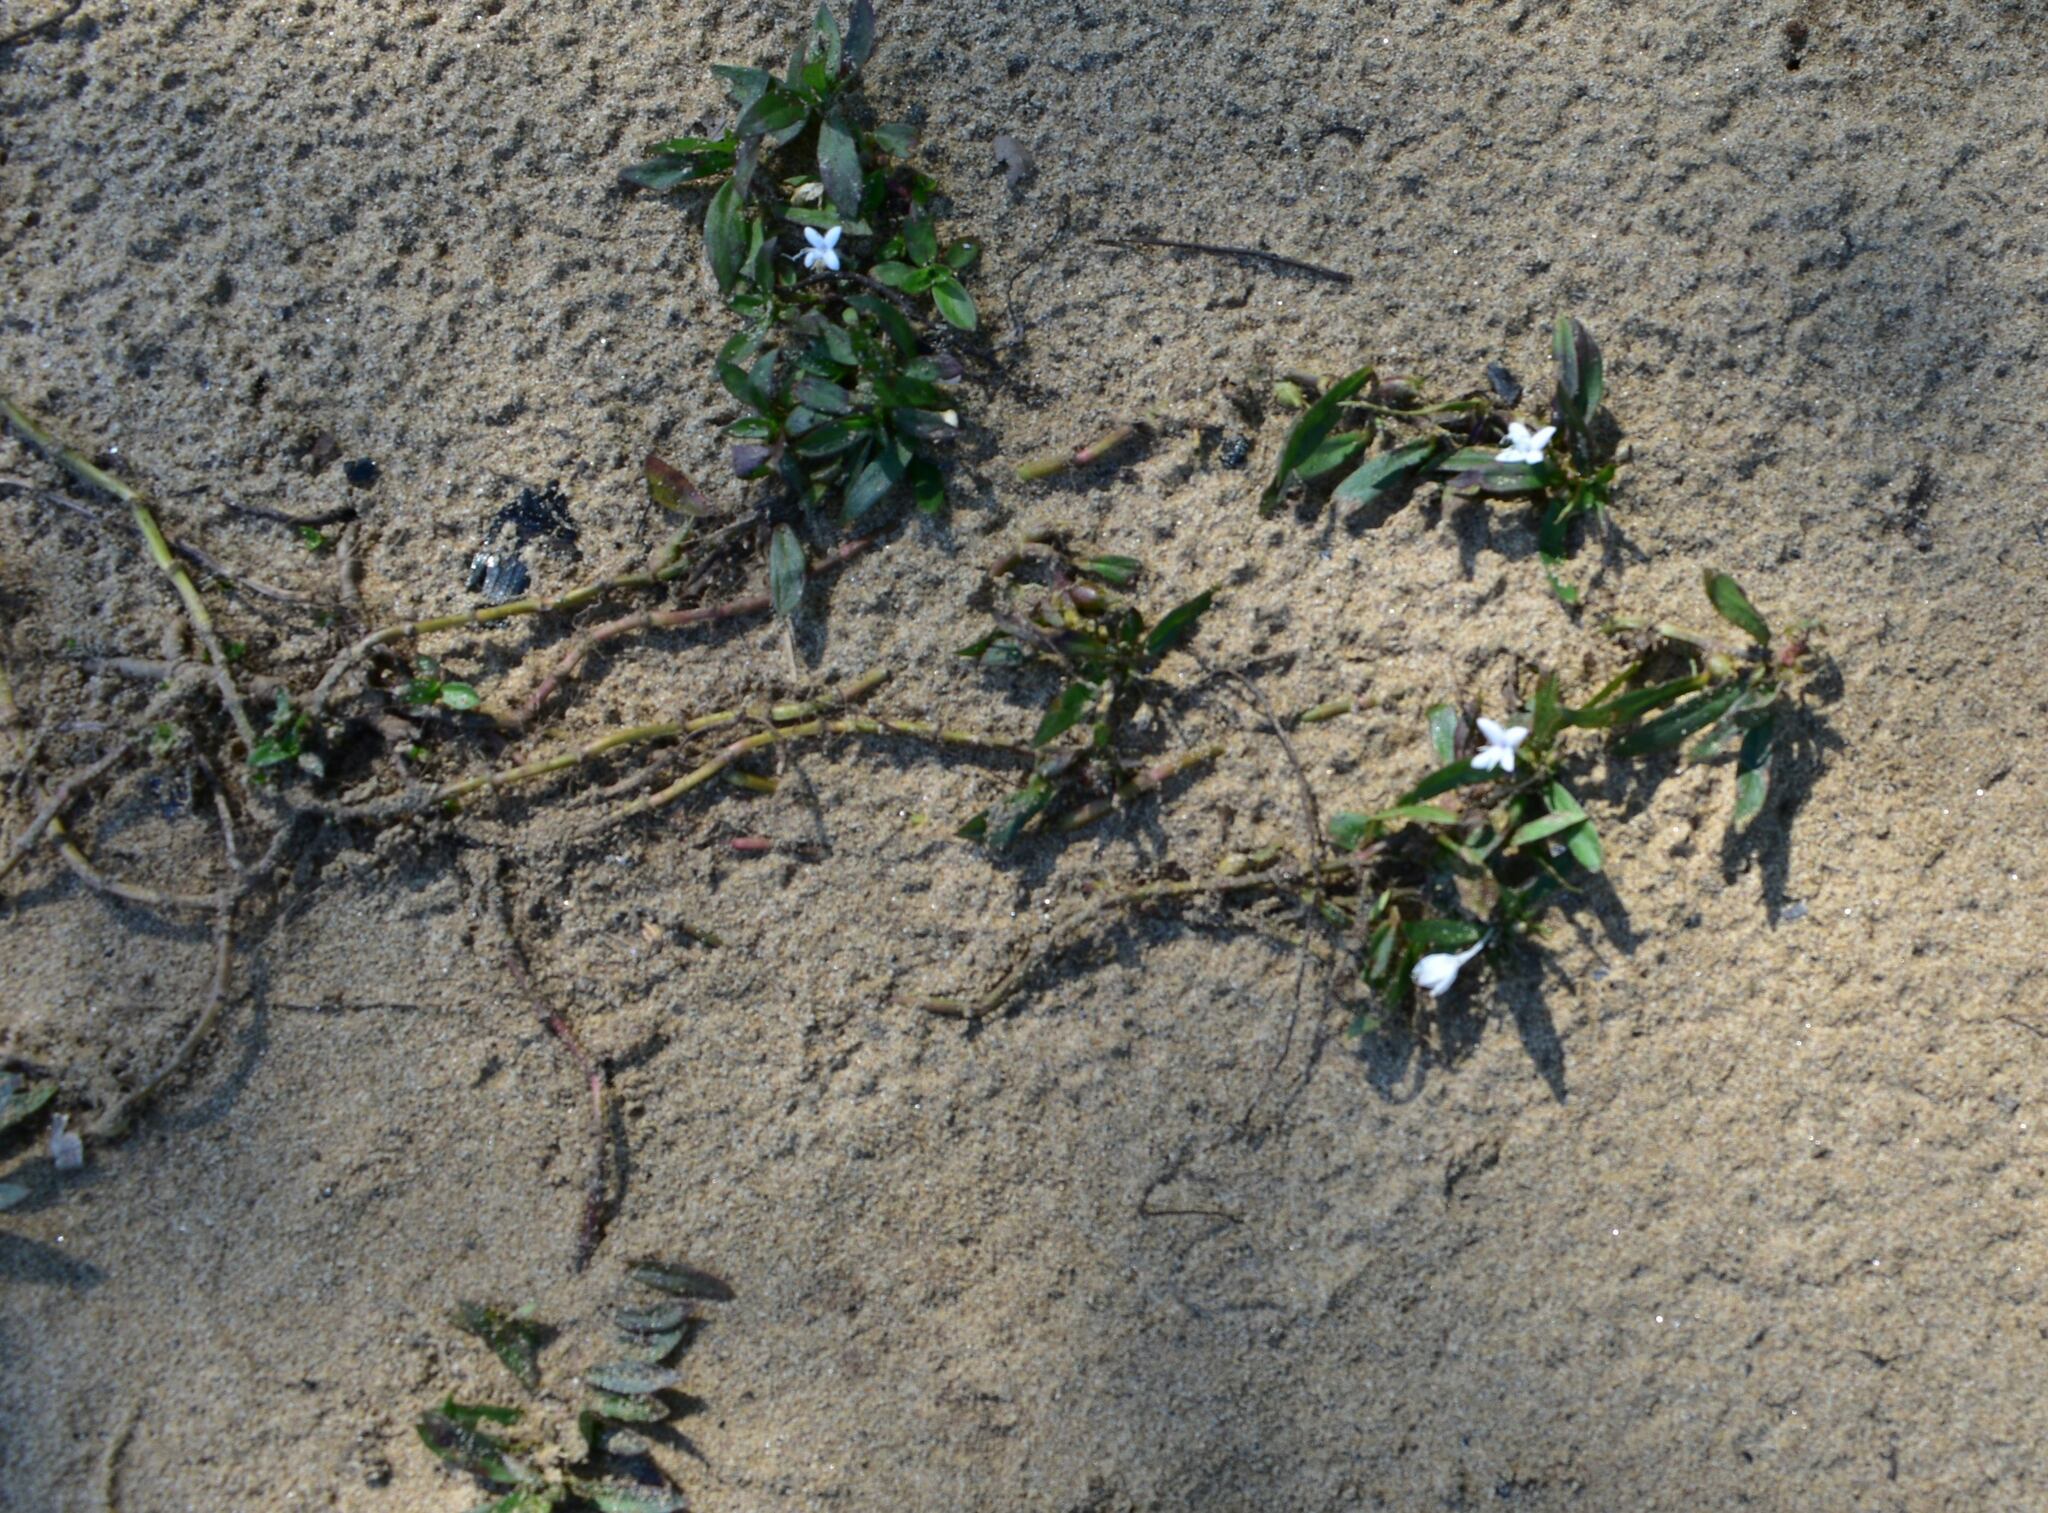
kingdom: Plantae
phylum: Tracheophyta
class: Magnoliopsida
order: Gentianales
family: Rubiaceae
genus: Diodia
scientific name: Diodia virginiana
